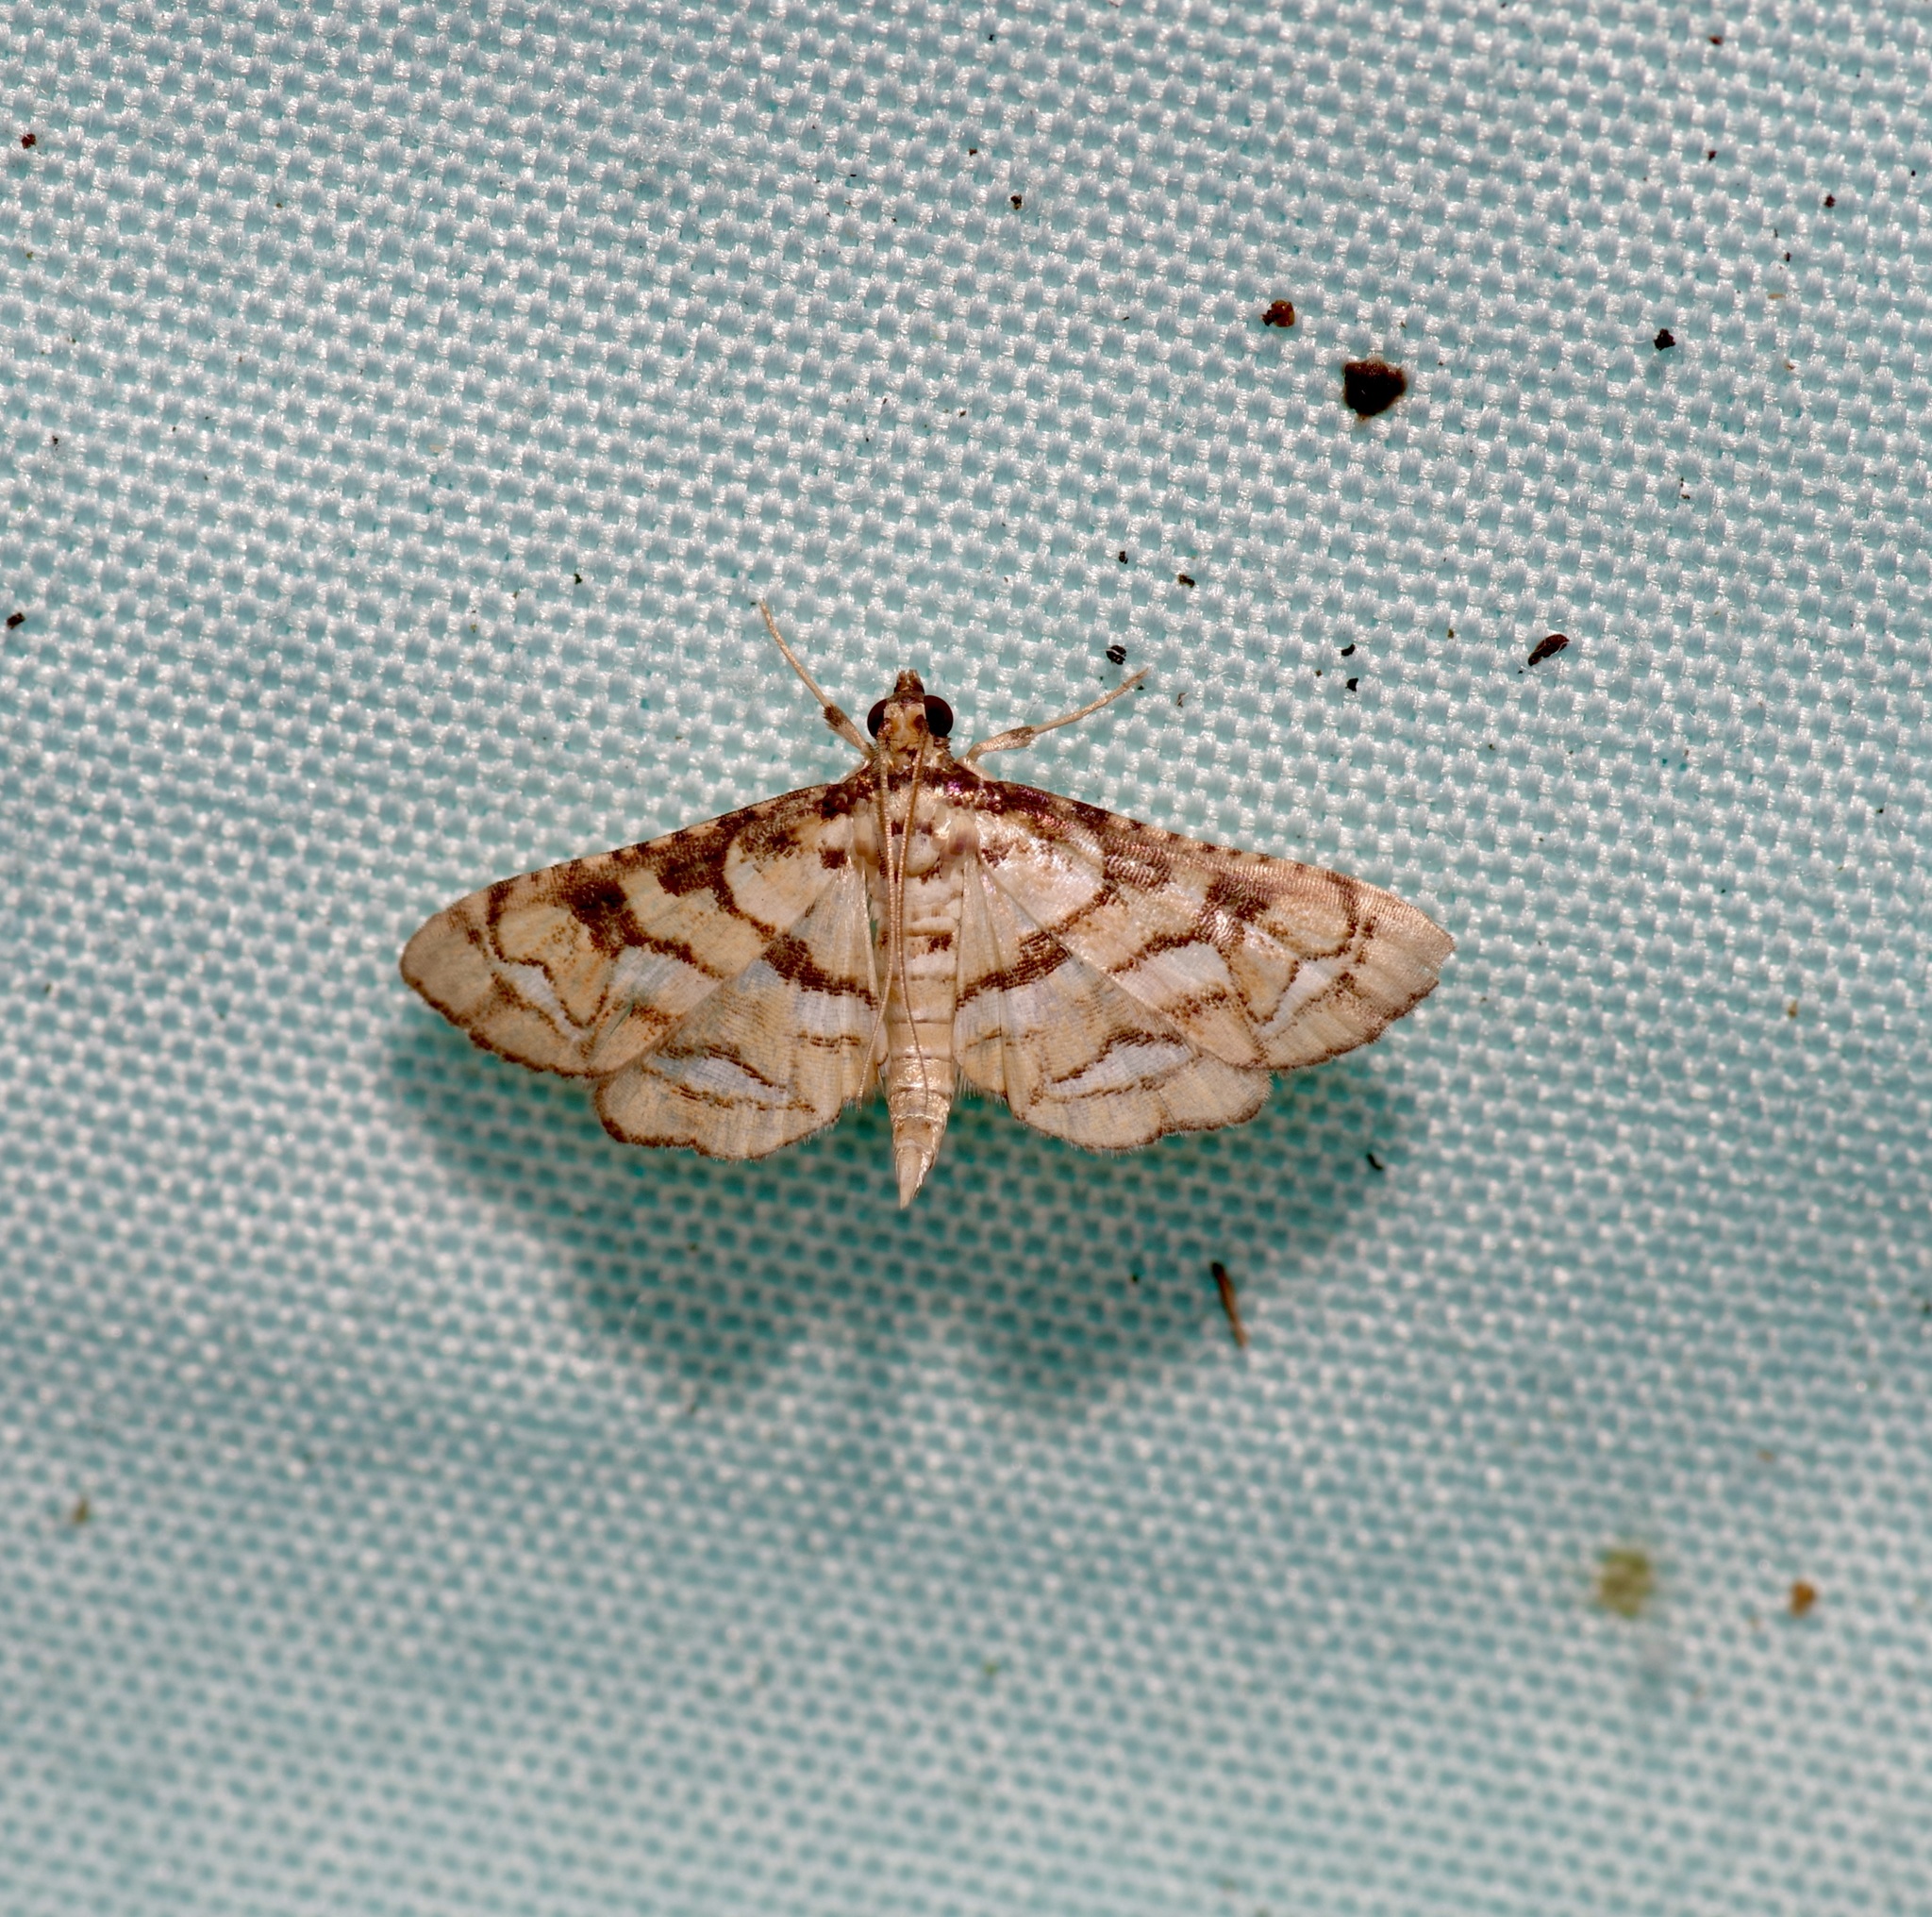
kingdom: Animalia
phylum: Arthropoda
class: Insecta
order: Lepidoptera
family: Crambidae
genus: Hileithia
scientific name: Hileithia magualis
